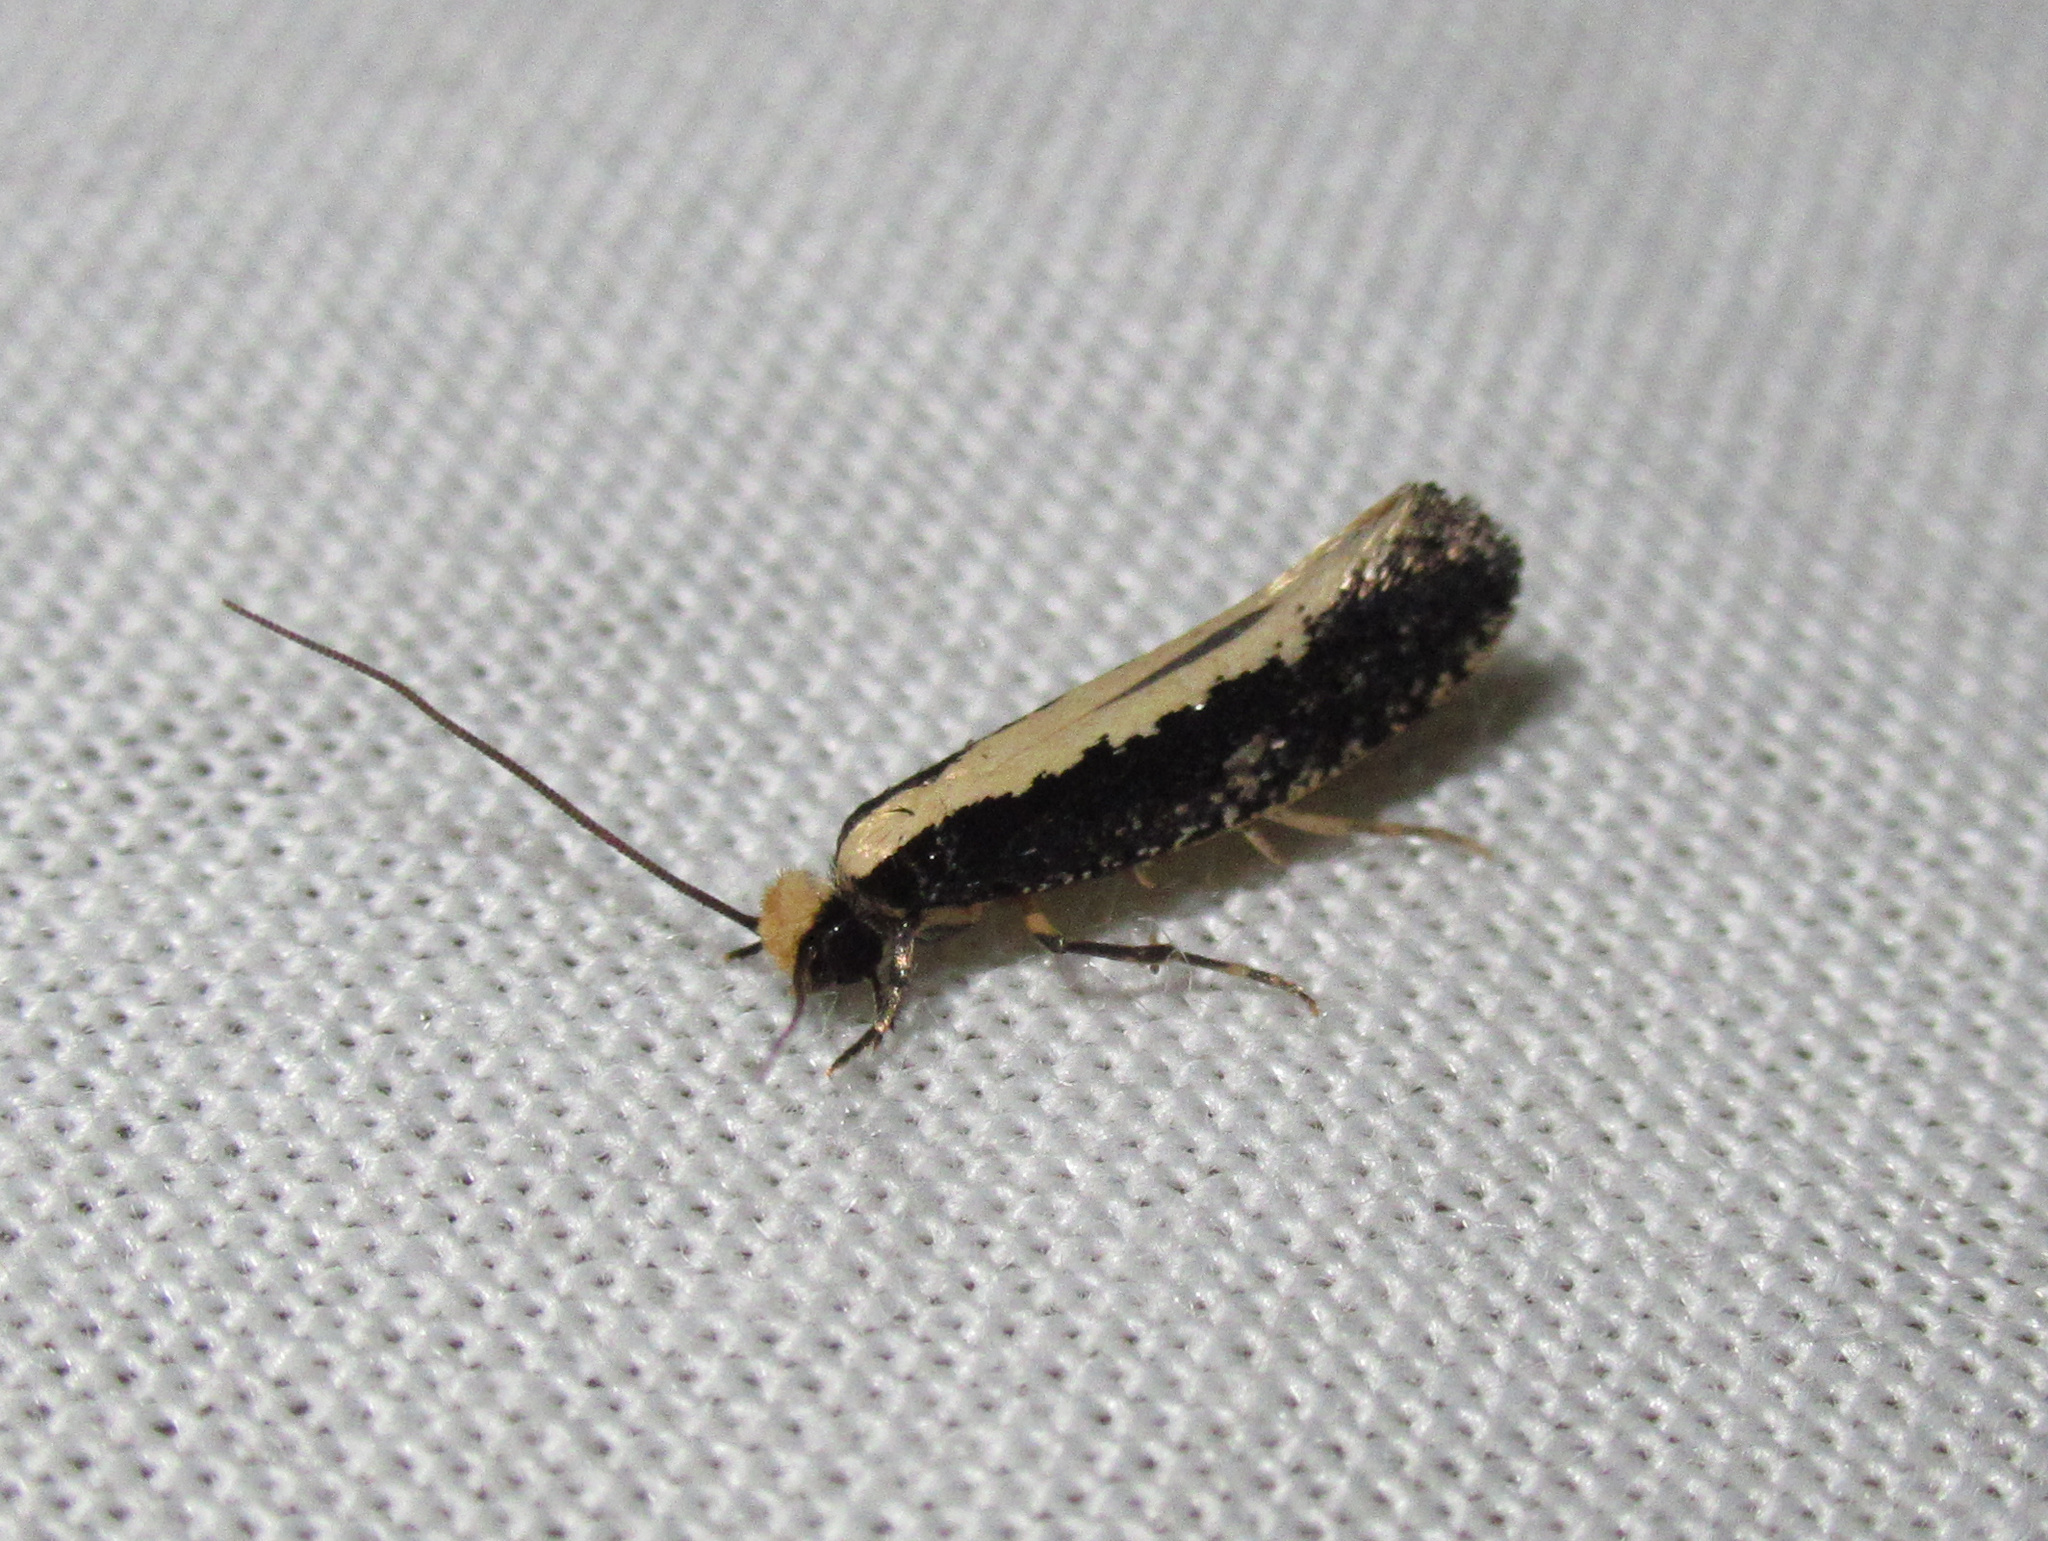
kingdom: Animalia
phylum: Arthropoda
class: Insecta
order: Lepidoptera
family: Tineidae
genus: Monopis
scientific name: Monopis ethelella
